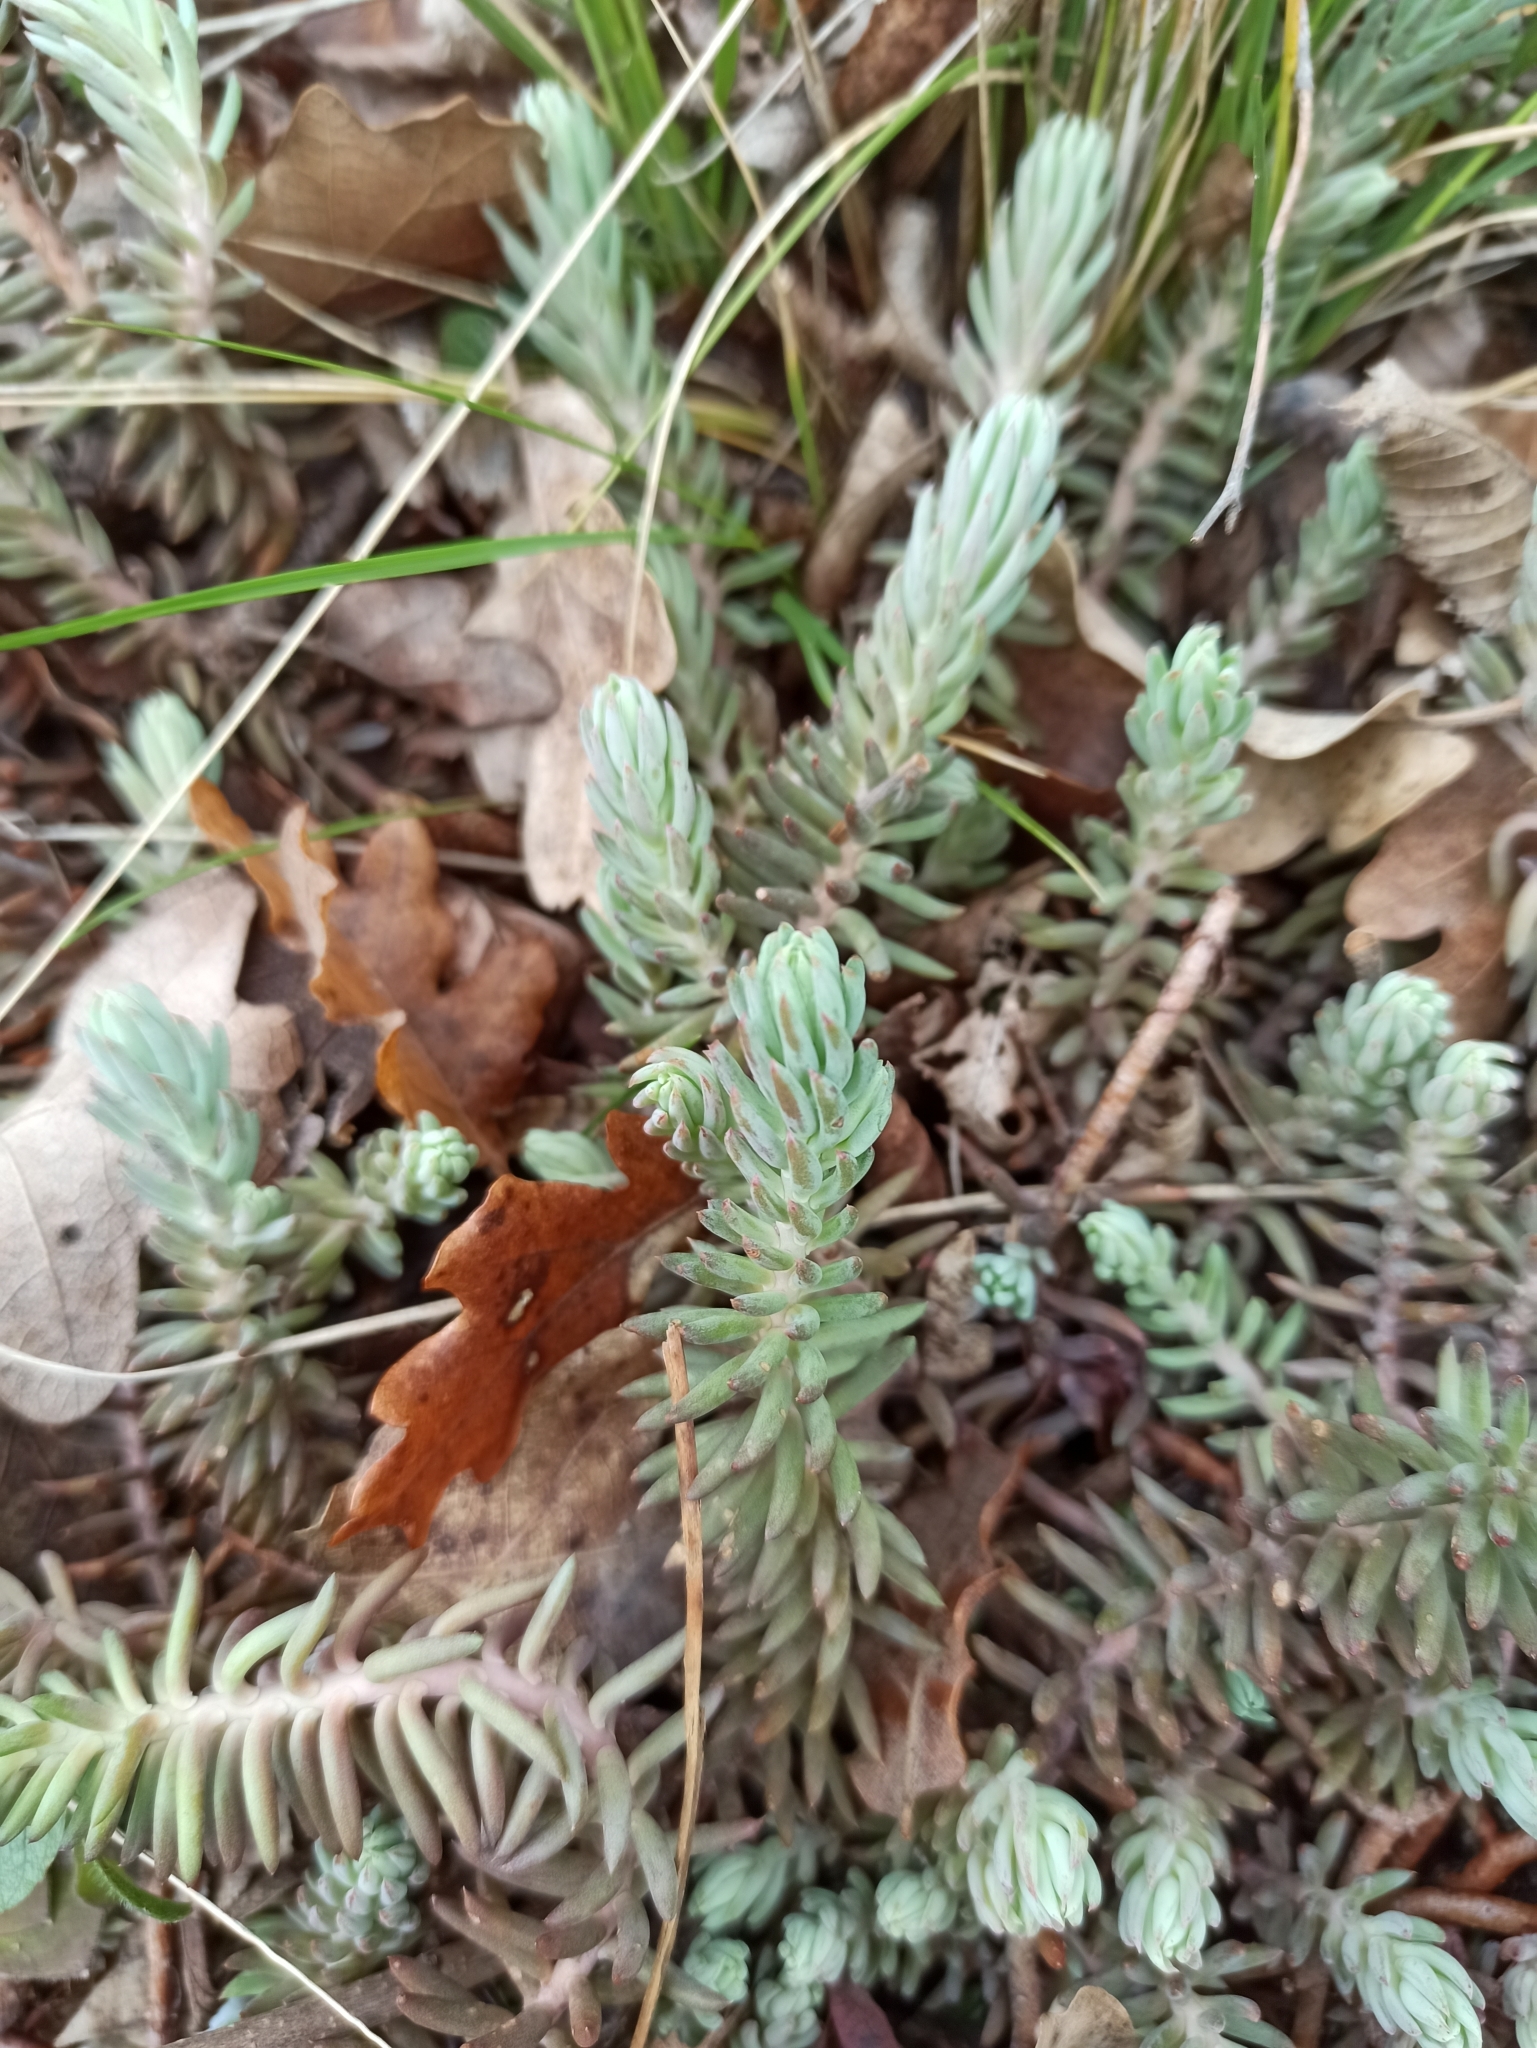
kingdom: Plantae
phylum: Tracheophyta
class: Magnoliopsida
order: Saxifragales
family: Crassulaceae
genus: Petrosedum
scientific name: Petrosedum orientale
